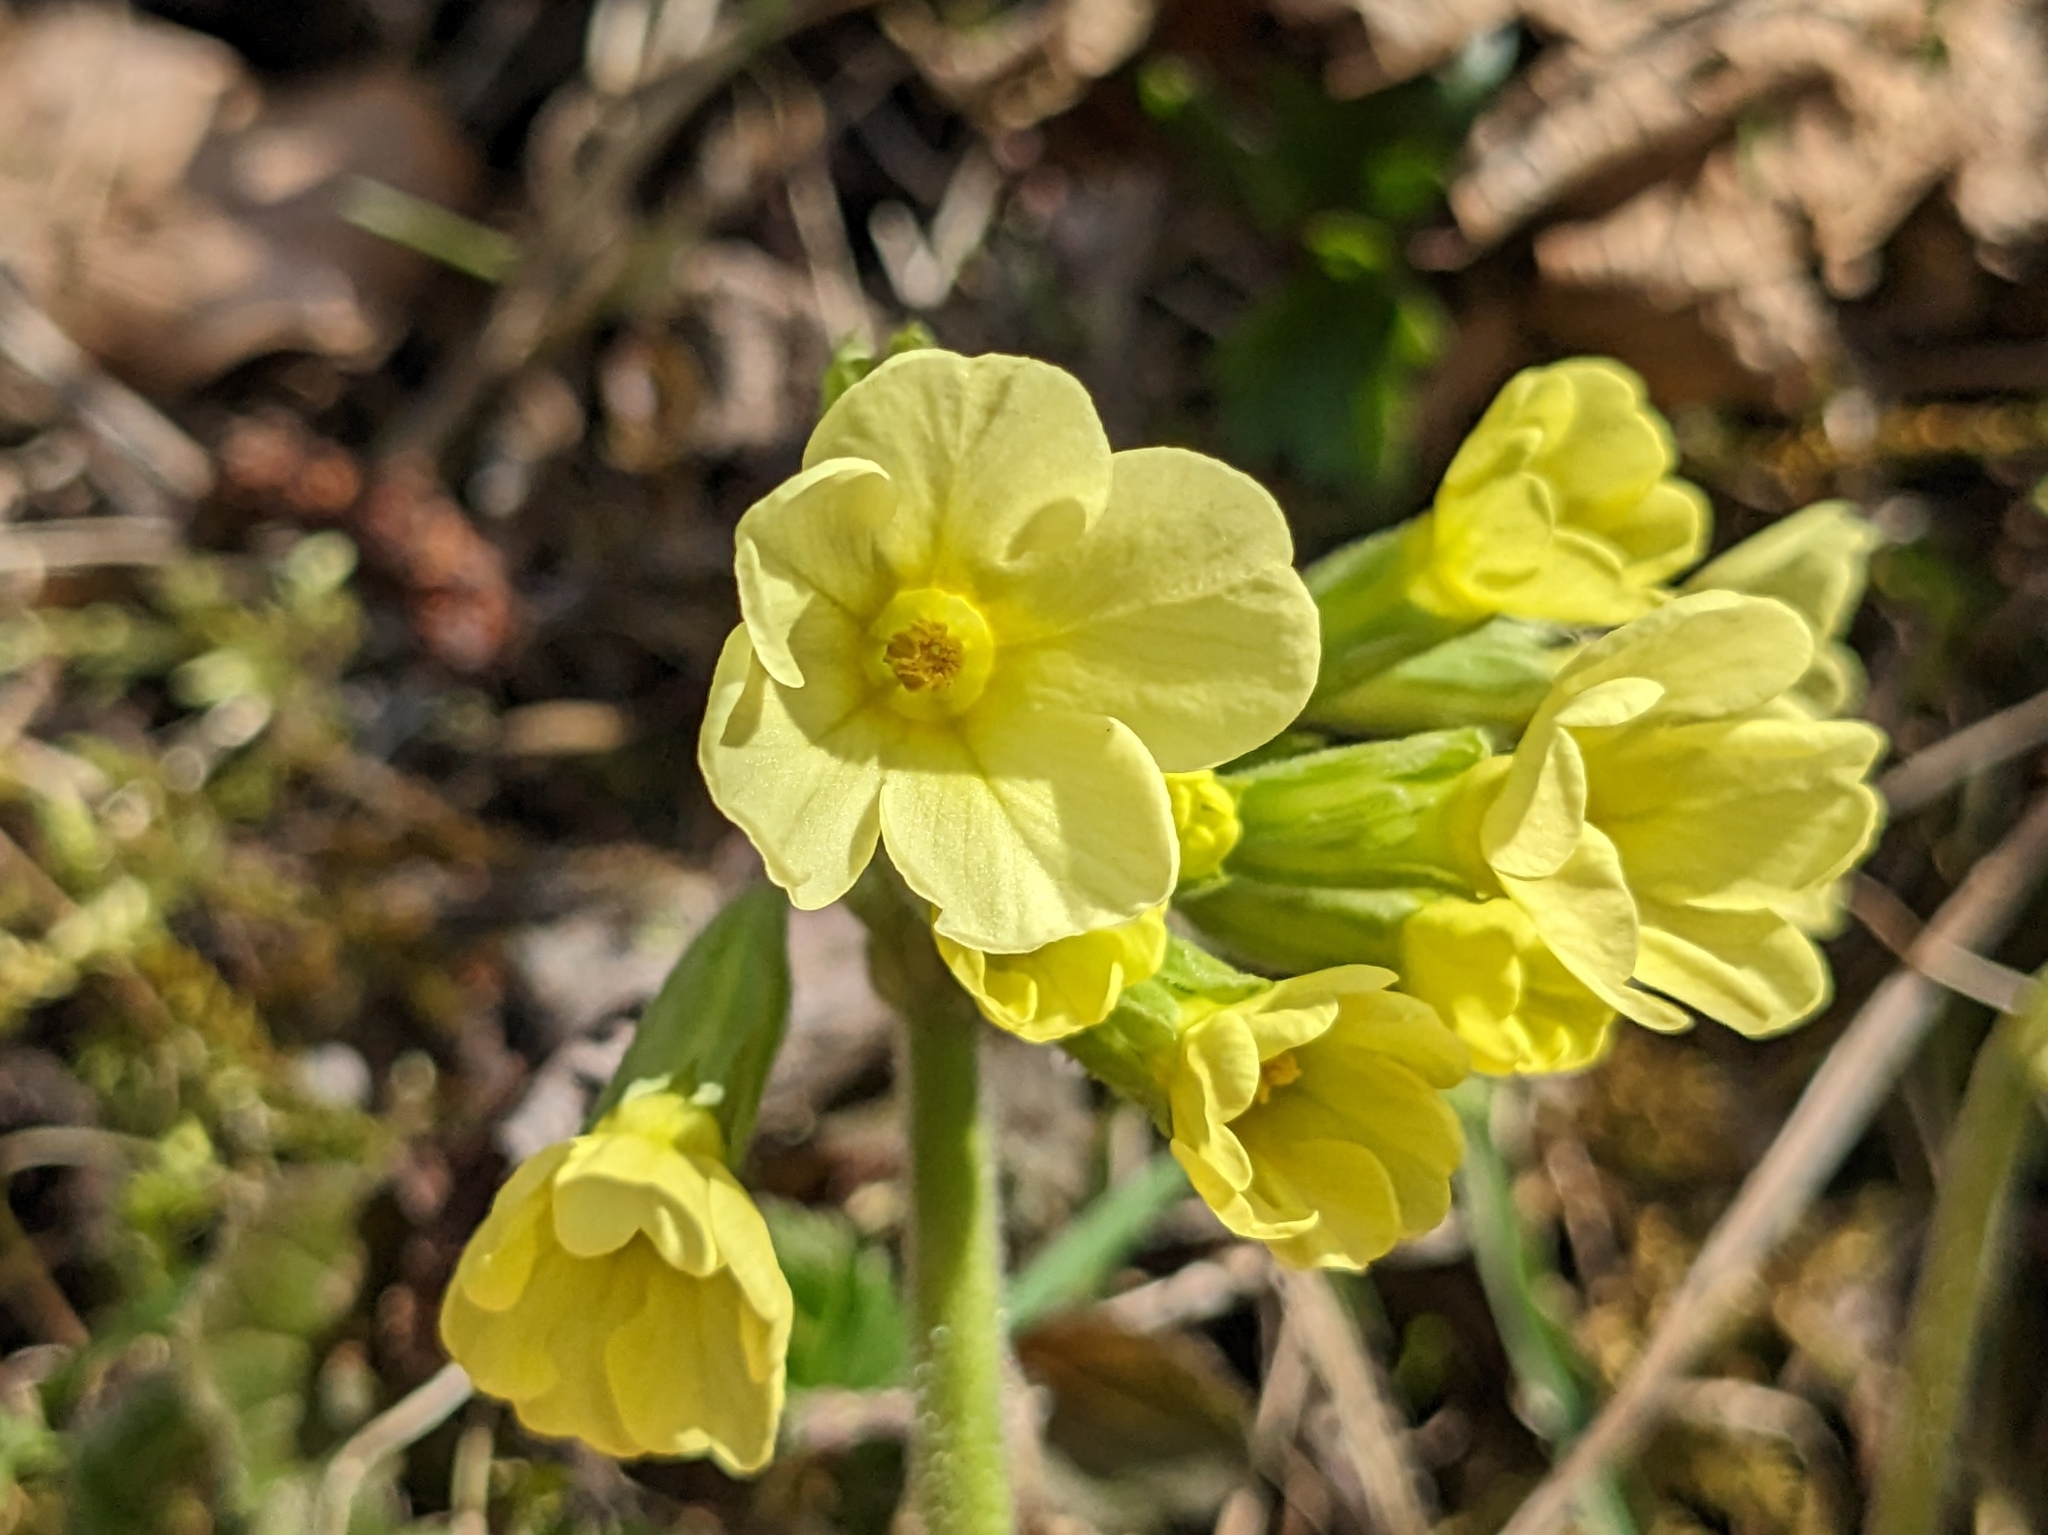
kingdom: Plantae
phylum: Tracheophyta
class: Magnoliopsida
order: Ericales
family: Primulaceae
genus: Primula
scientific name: Primula elatior
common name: Oxlip
